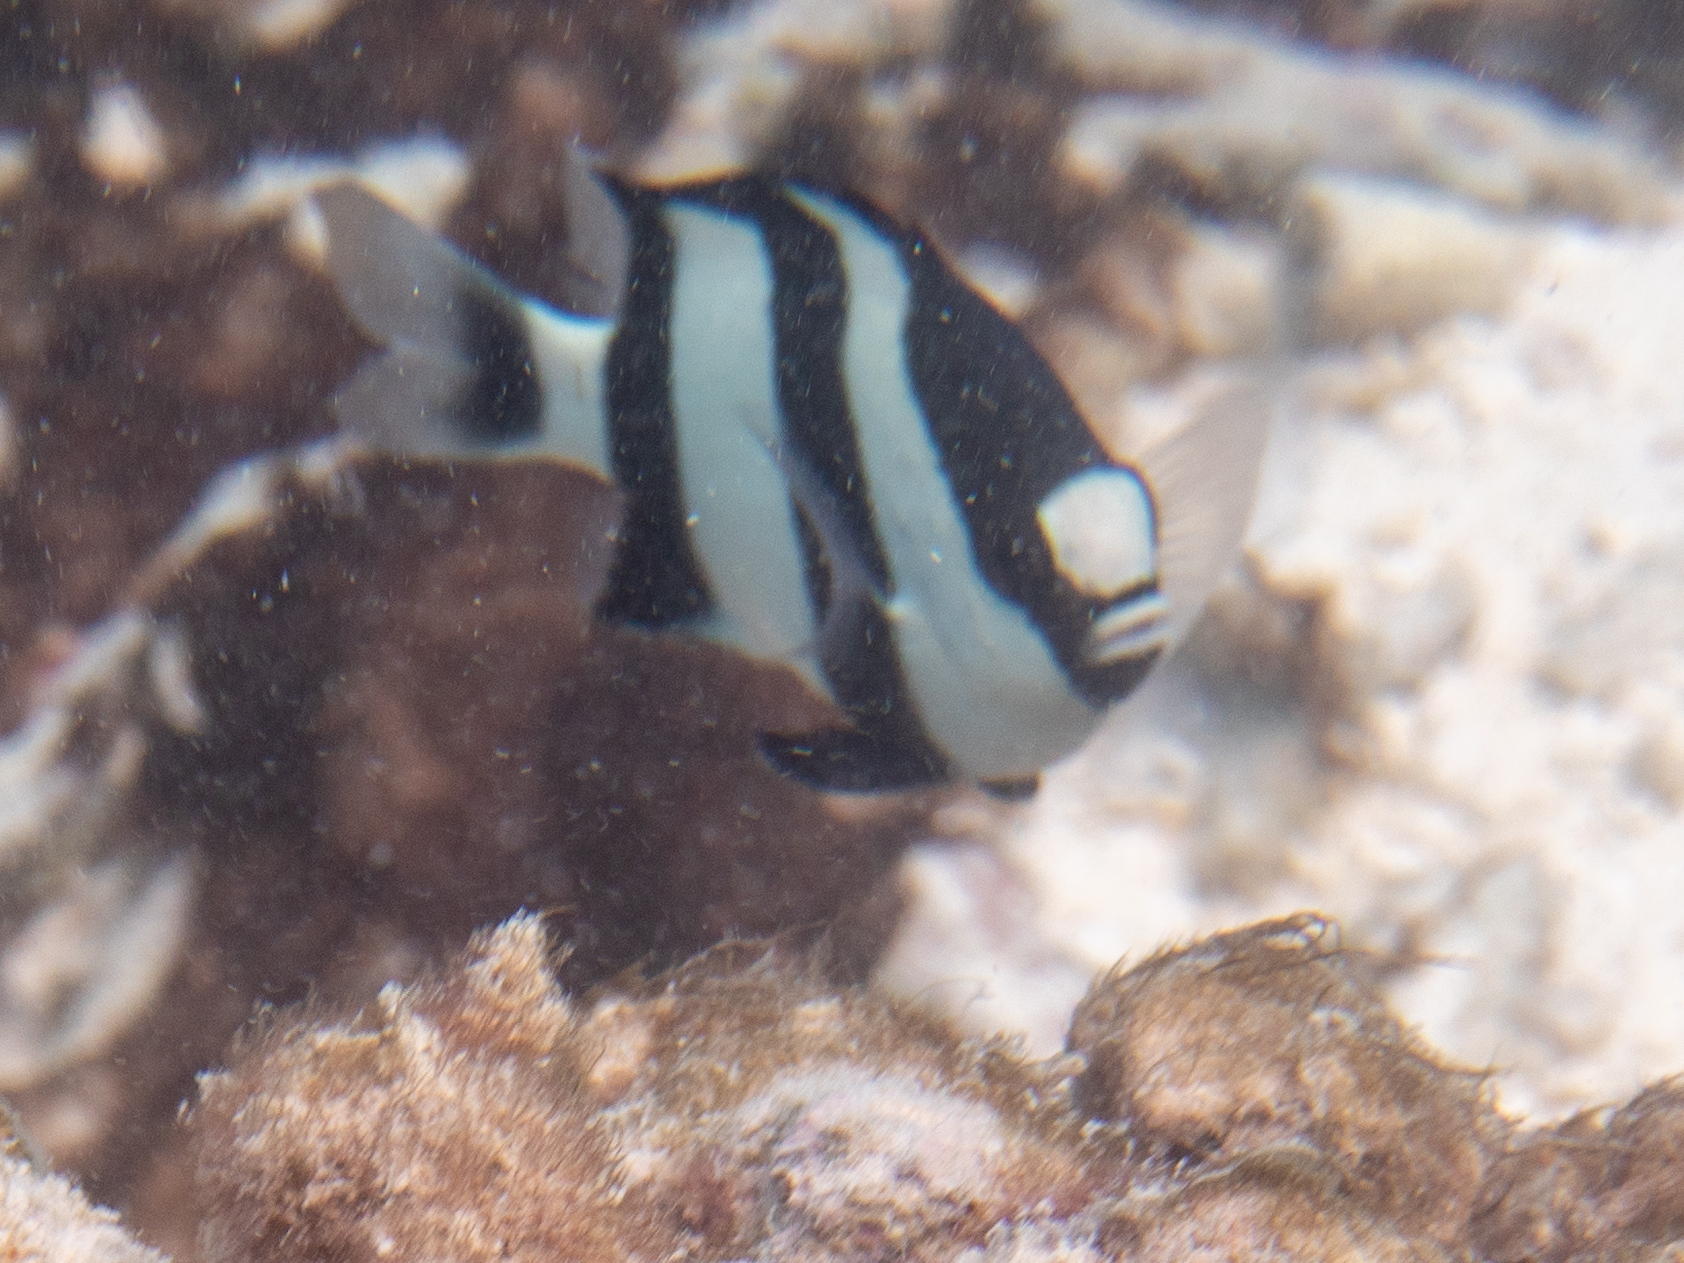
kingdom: Animalia
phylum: Chordata
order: Perciformes
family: Pomacentridae
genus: Dascyllus
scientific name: Dascyllus abudafur
